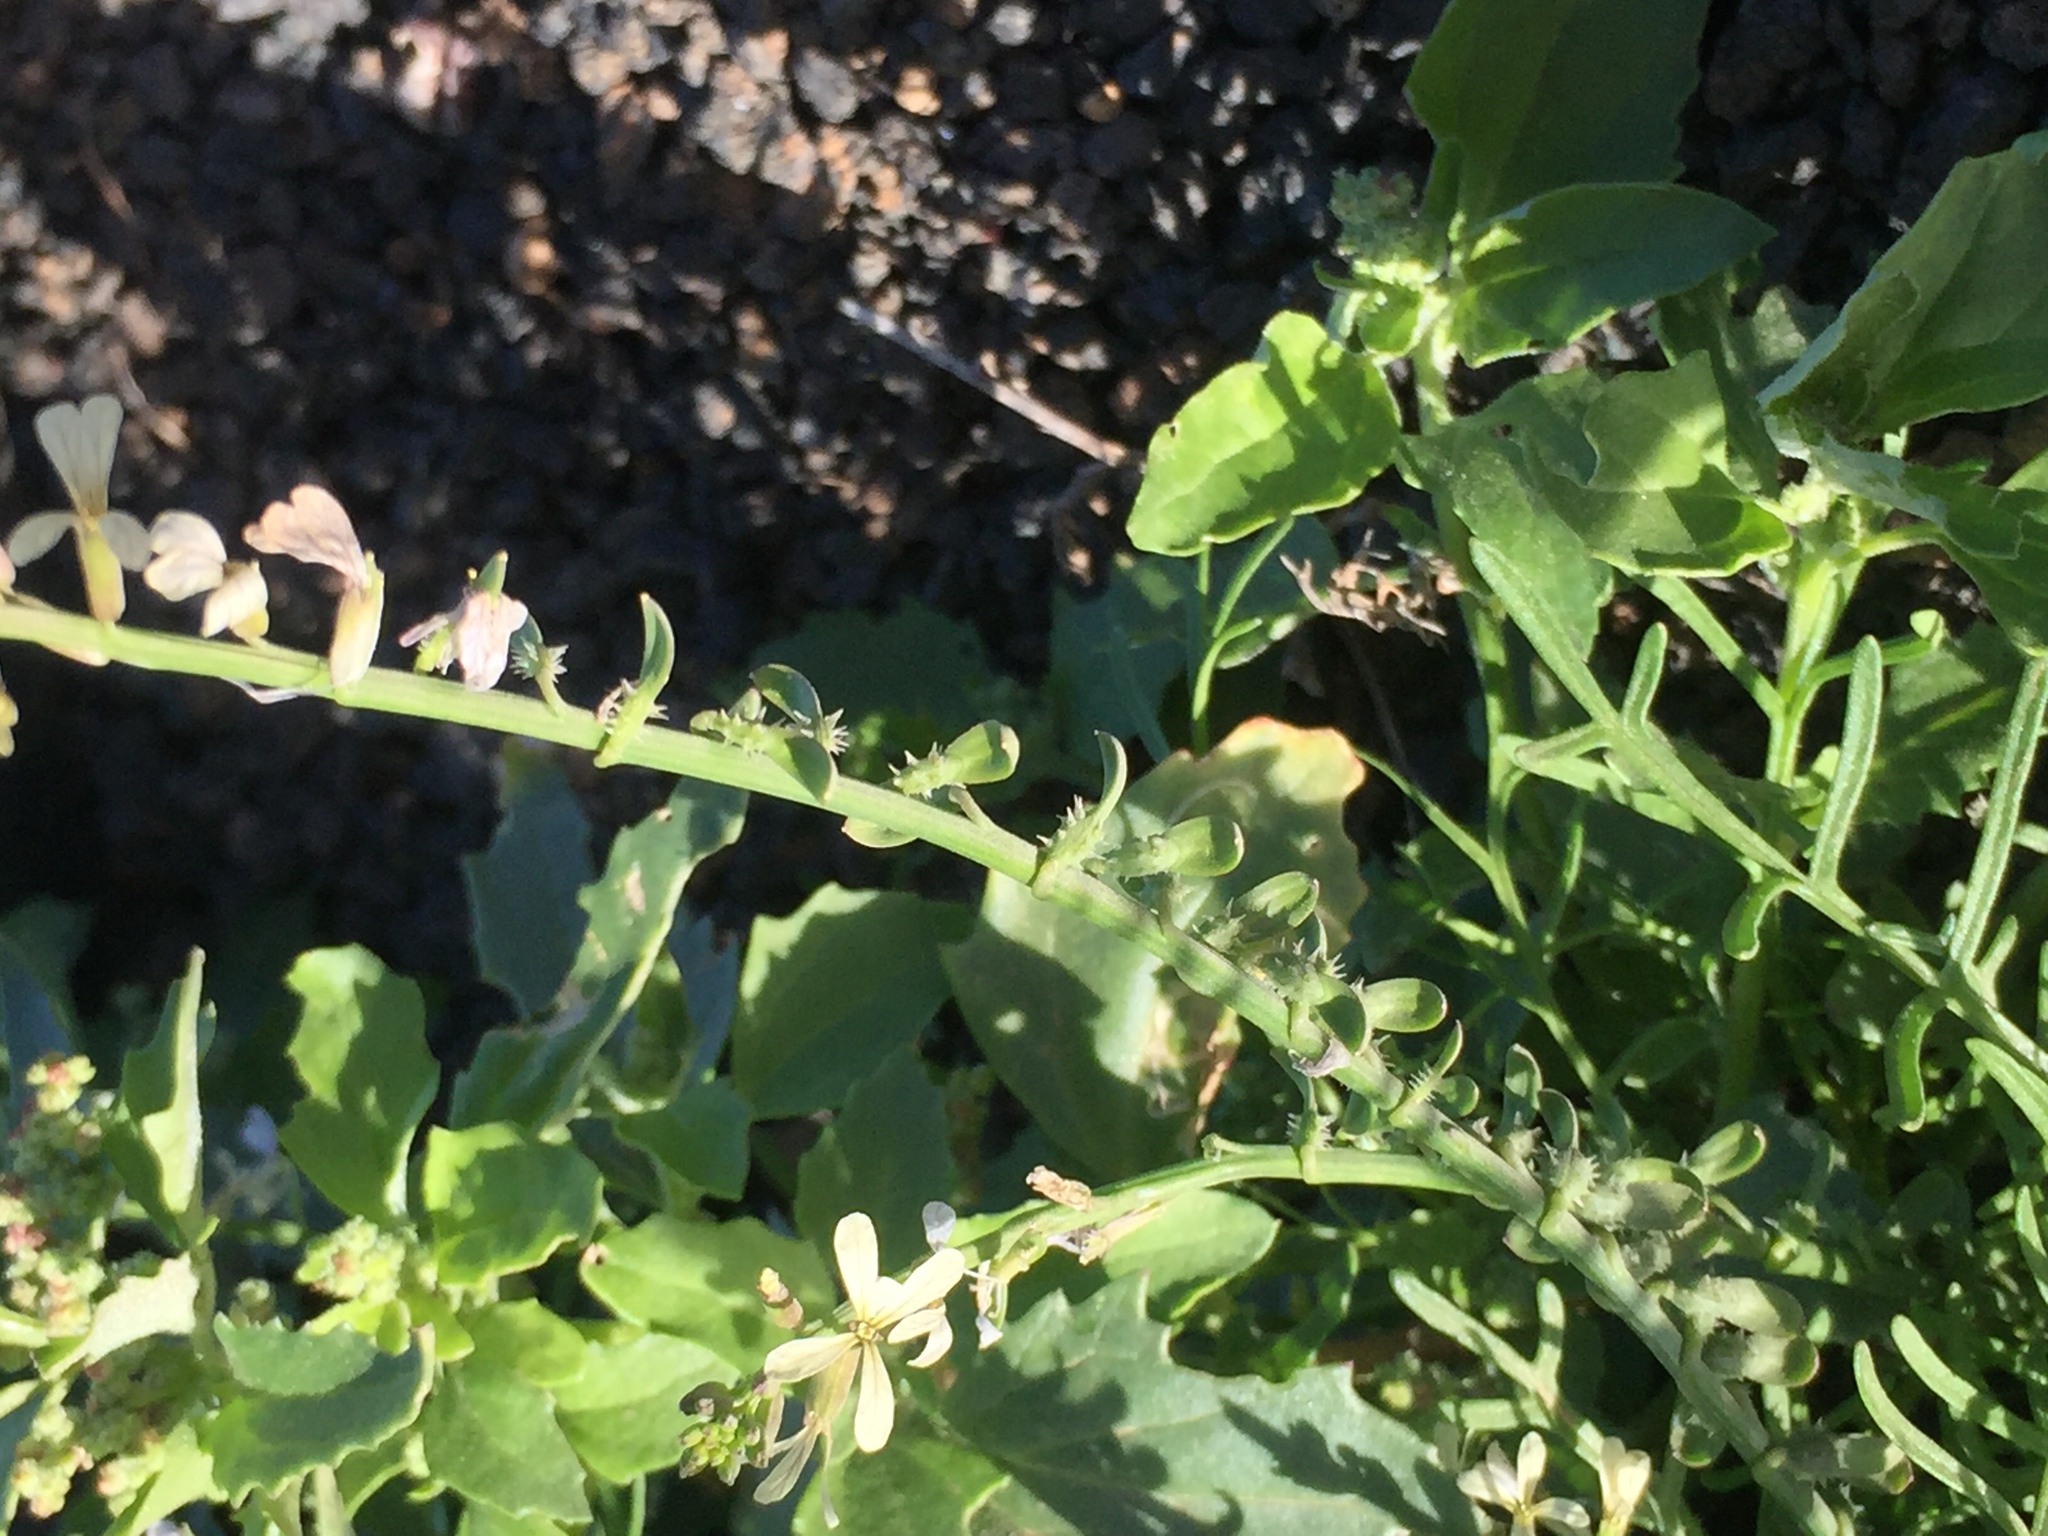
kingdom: Plantae
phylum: Tracheophyta
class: Magnoliopsida
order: Brassicales
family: Brassicaceae
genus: Carrichtera
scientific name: Carrichtera annua
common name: Cress rocket
